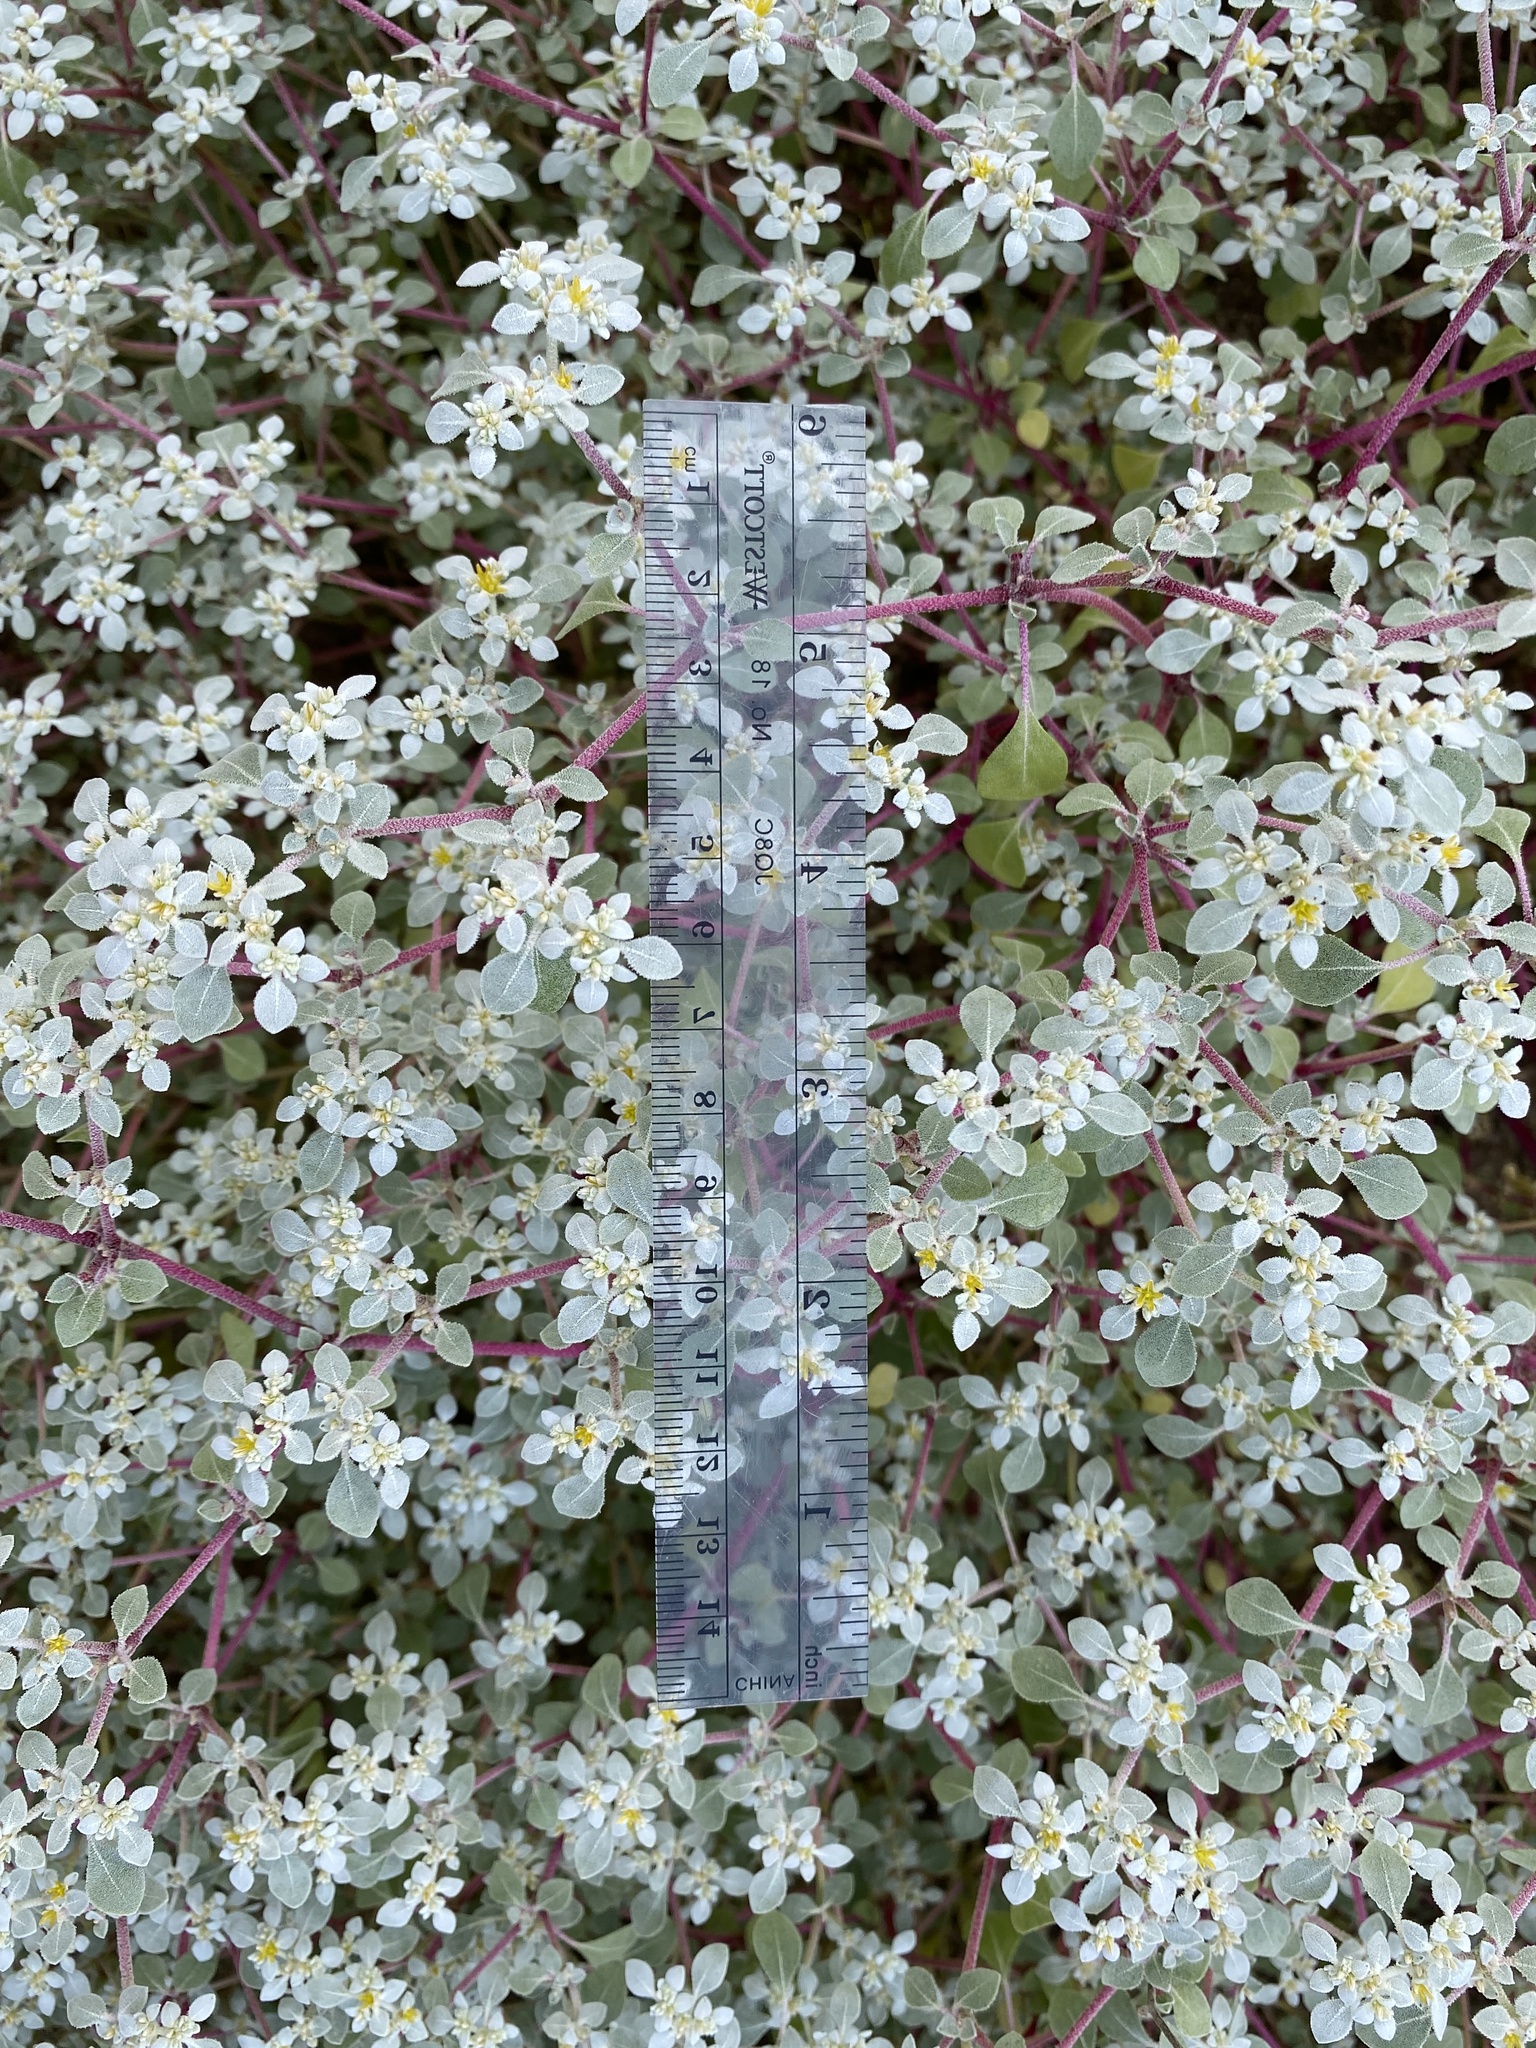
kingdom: Plantae
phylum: Tracheophyta
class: Magnoliopsida
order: Caryophyllales
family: Amaranthaceae
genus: Tidestromia
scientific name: Tidestromia lanuginosa
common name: Woolly tidestromia
